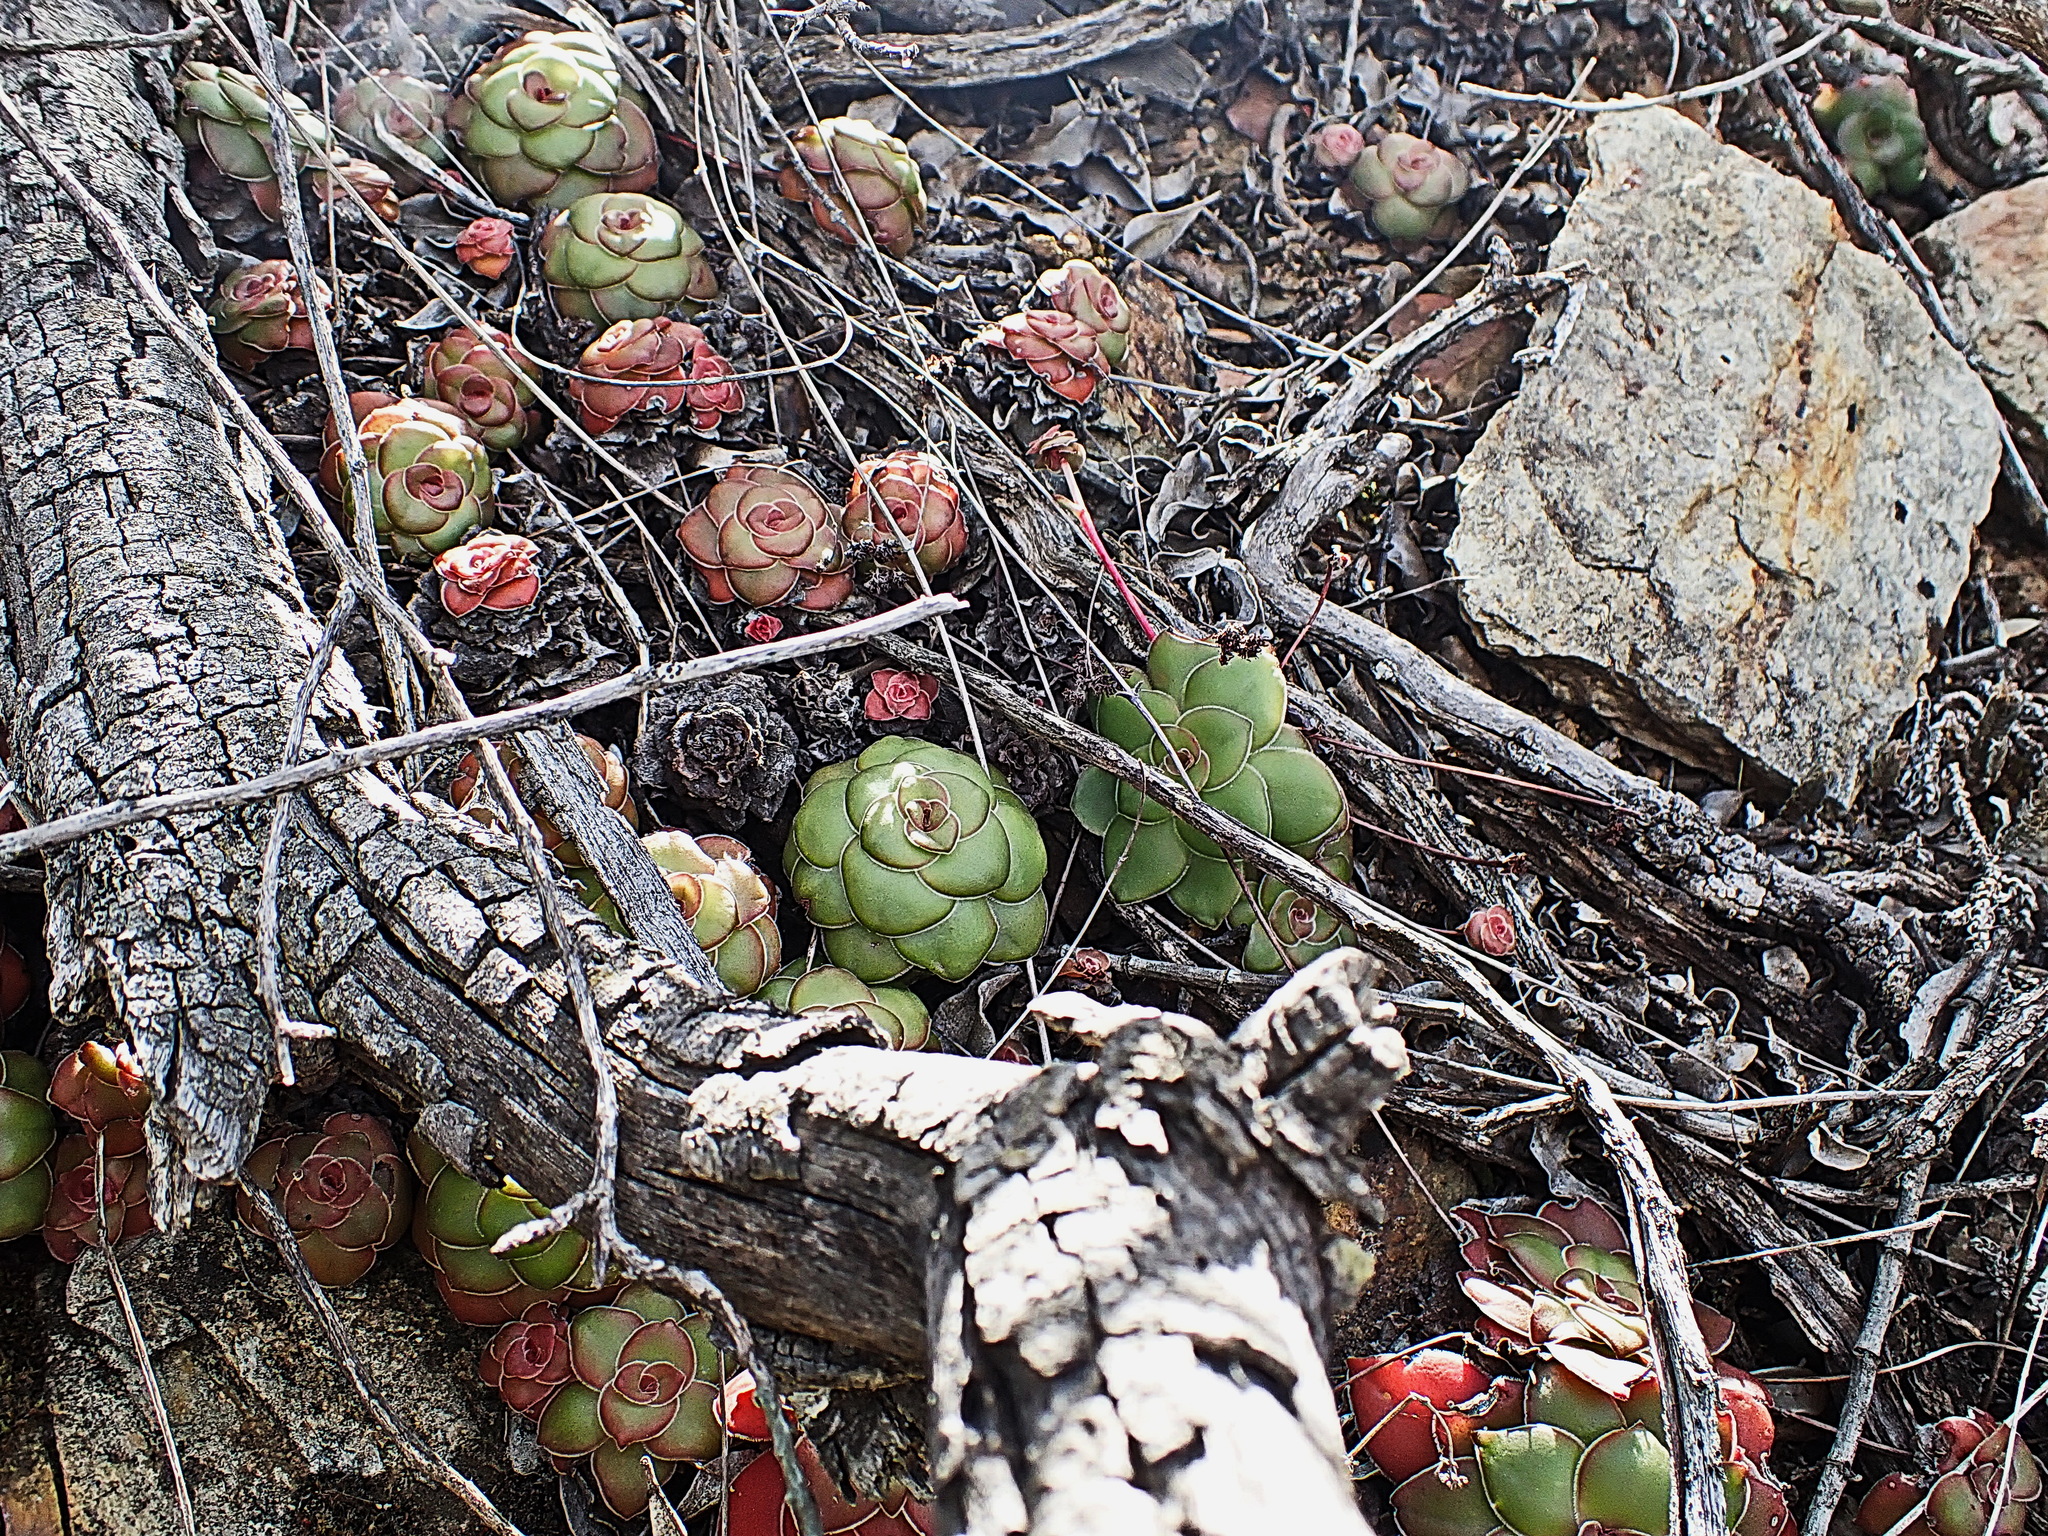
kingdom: Plantae
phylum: Tracheophyta
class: Magnoliopsida
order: Saxifragales
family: Crassulaceae
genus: Crassula
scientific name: Crassula orbicularis
